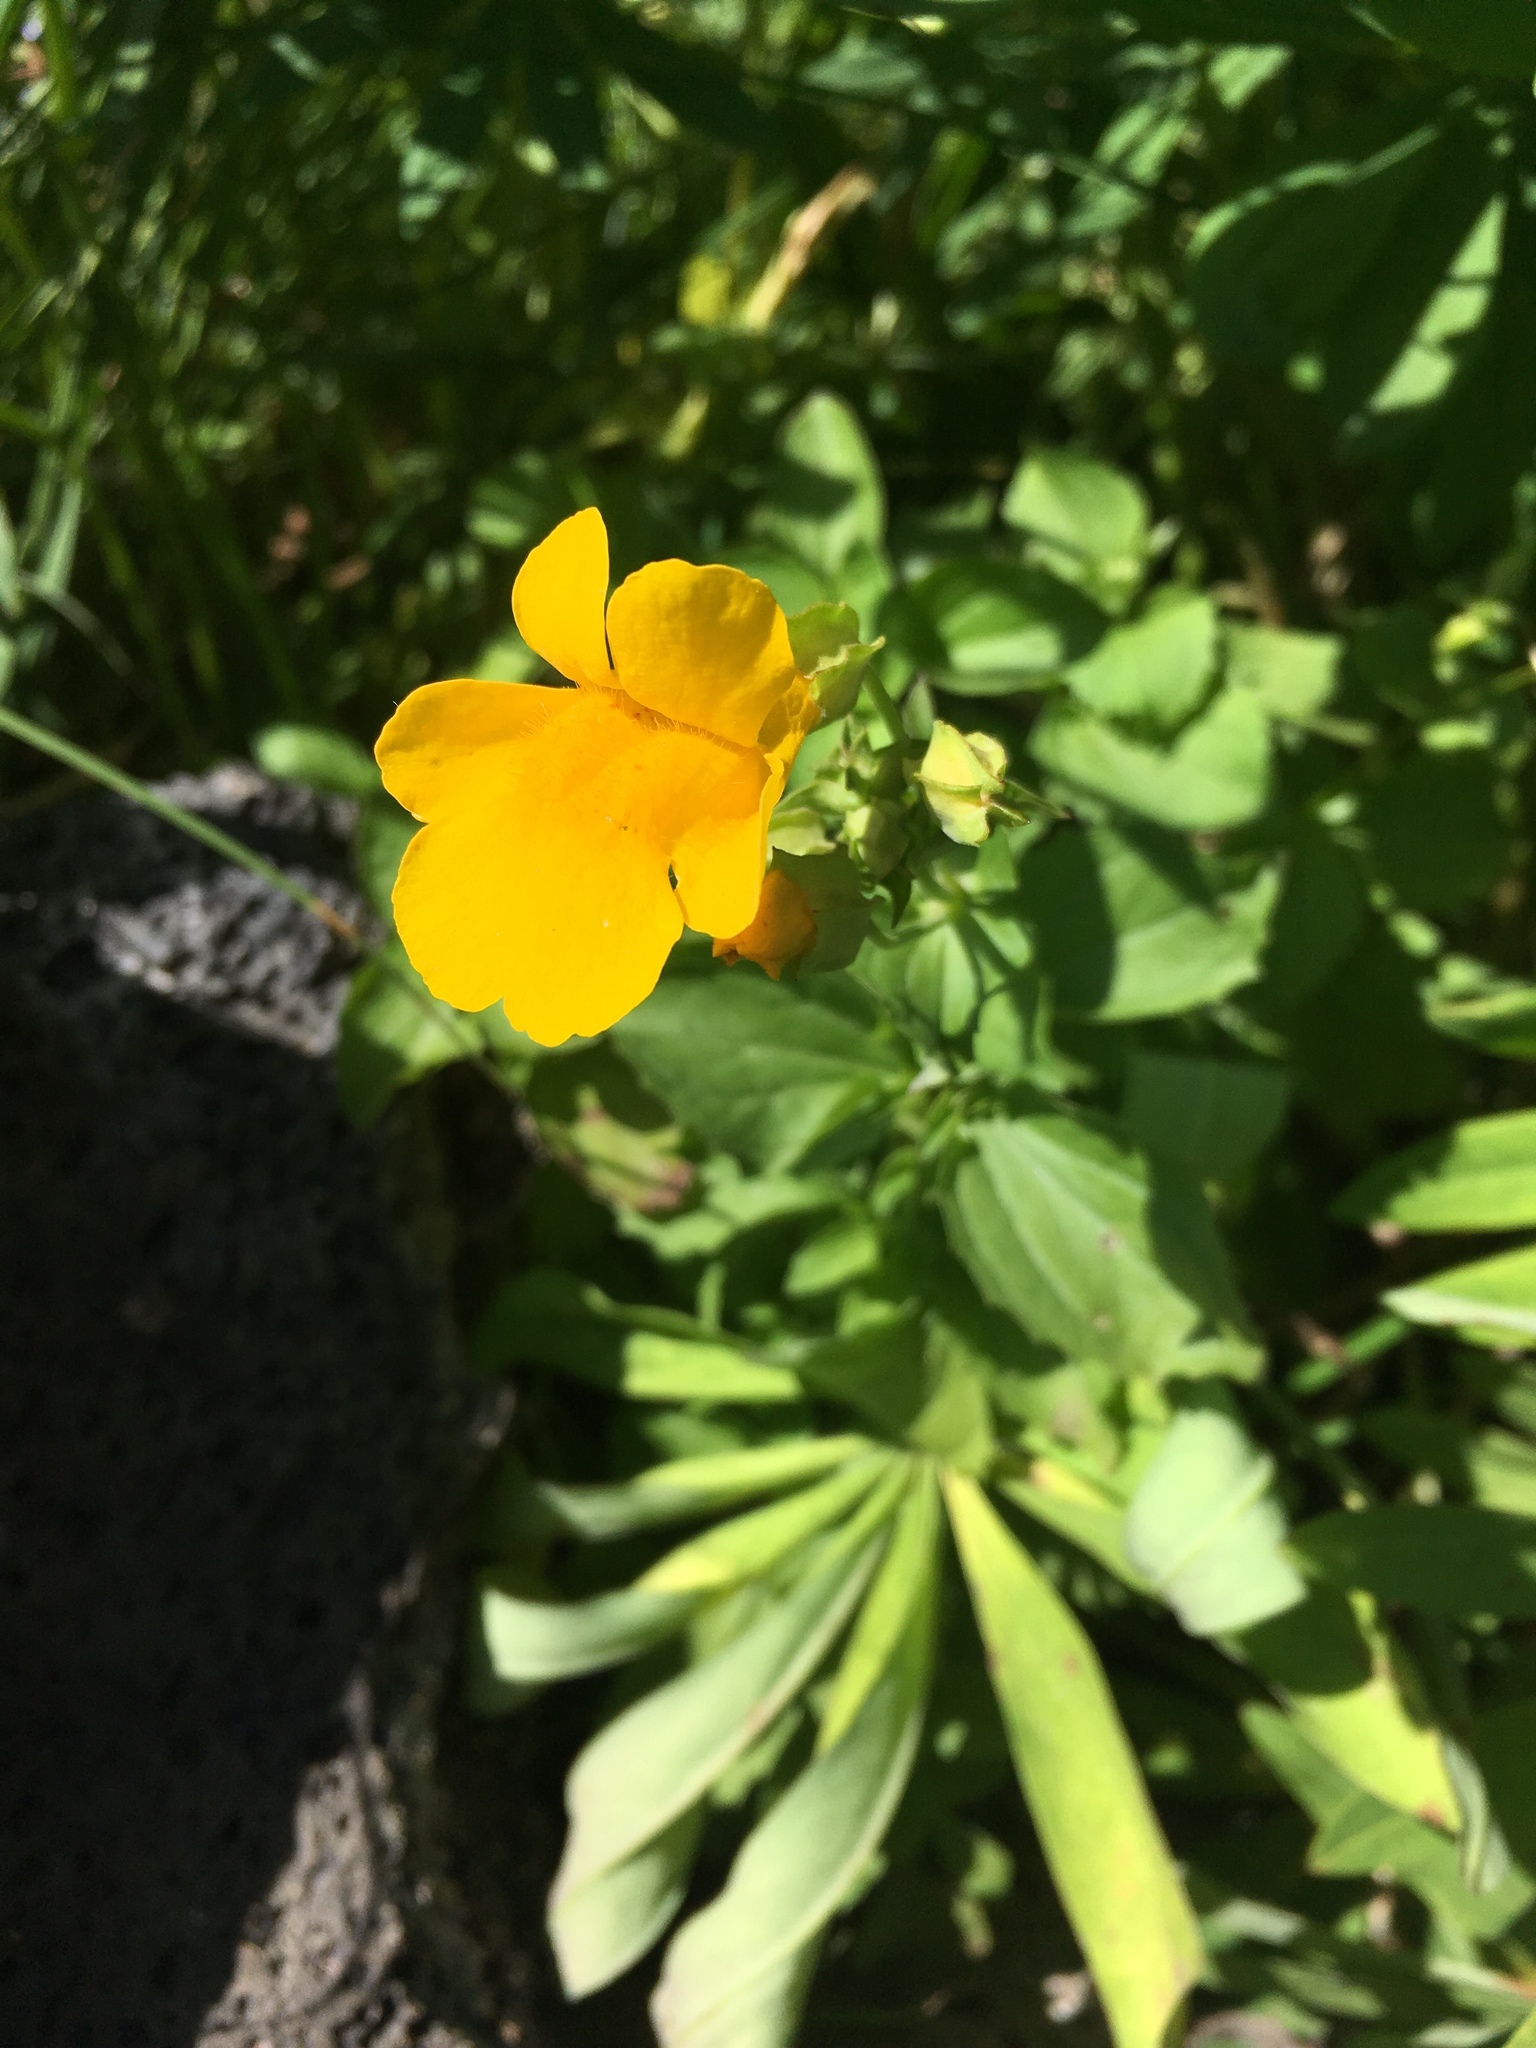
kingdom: Plantae
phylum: Tracheophyta
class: Magnoliopsida
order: Lamiales
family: Phrymaceae
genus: Erythranthe
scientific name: Erythranthe decora
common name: Mannered monkeyflower
